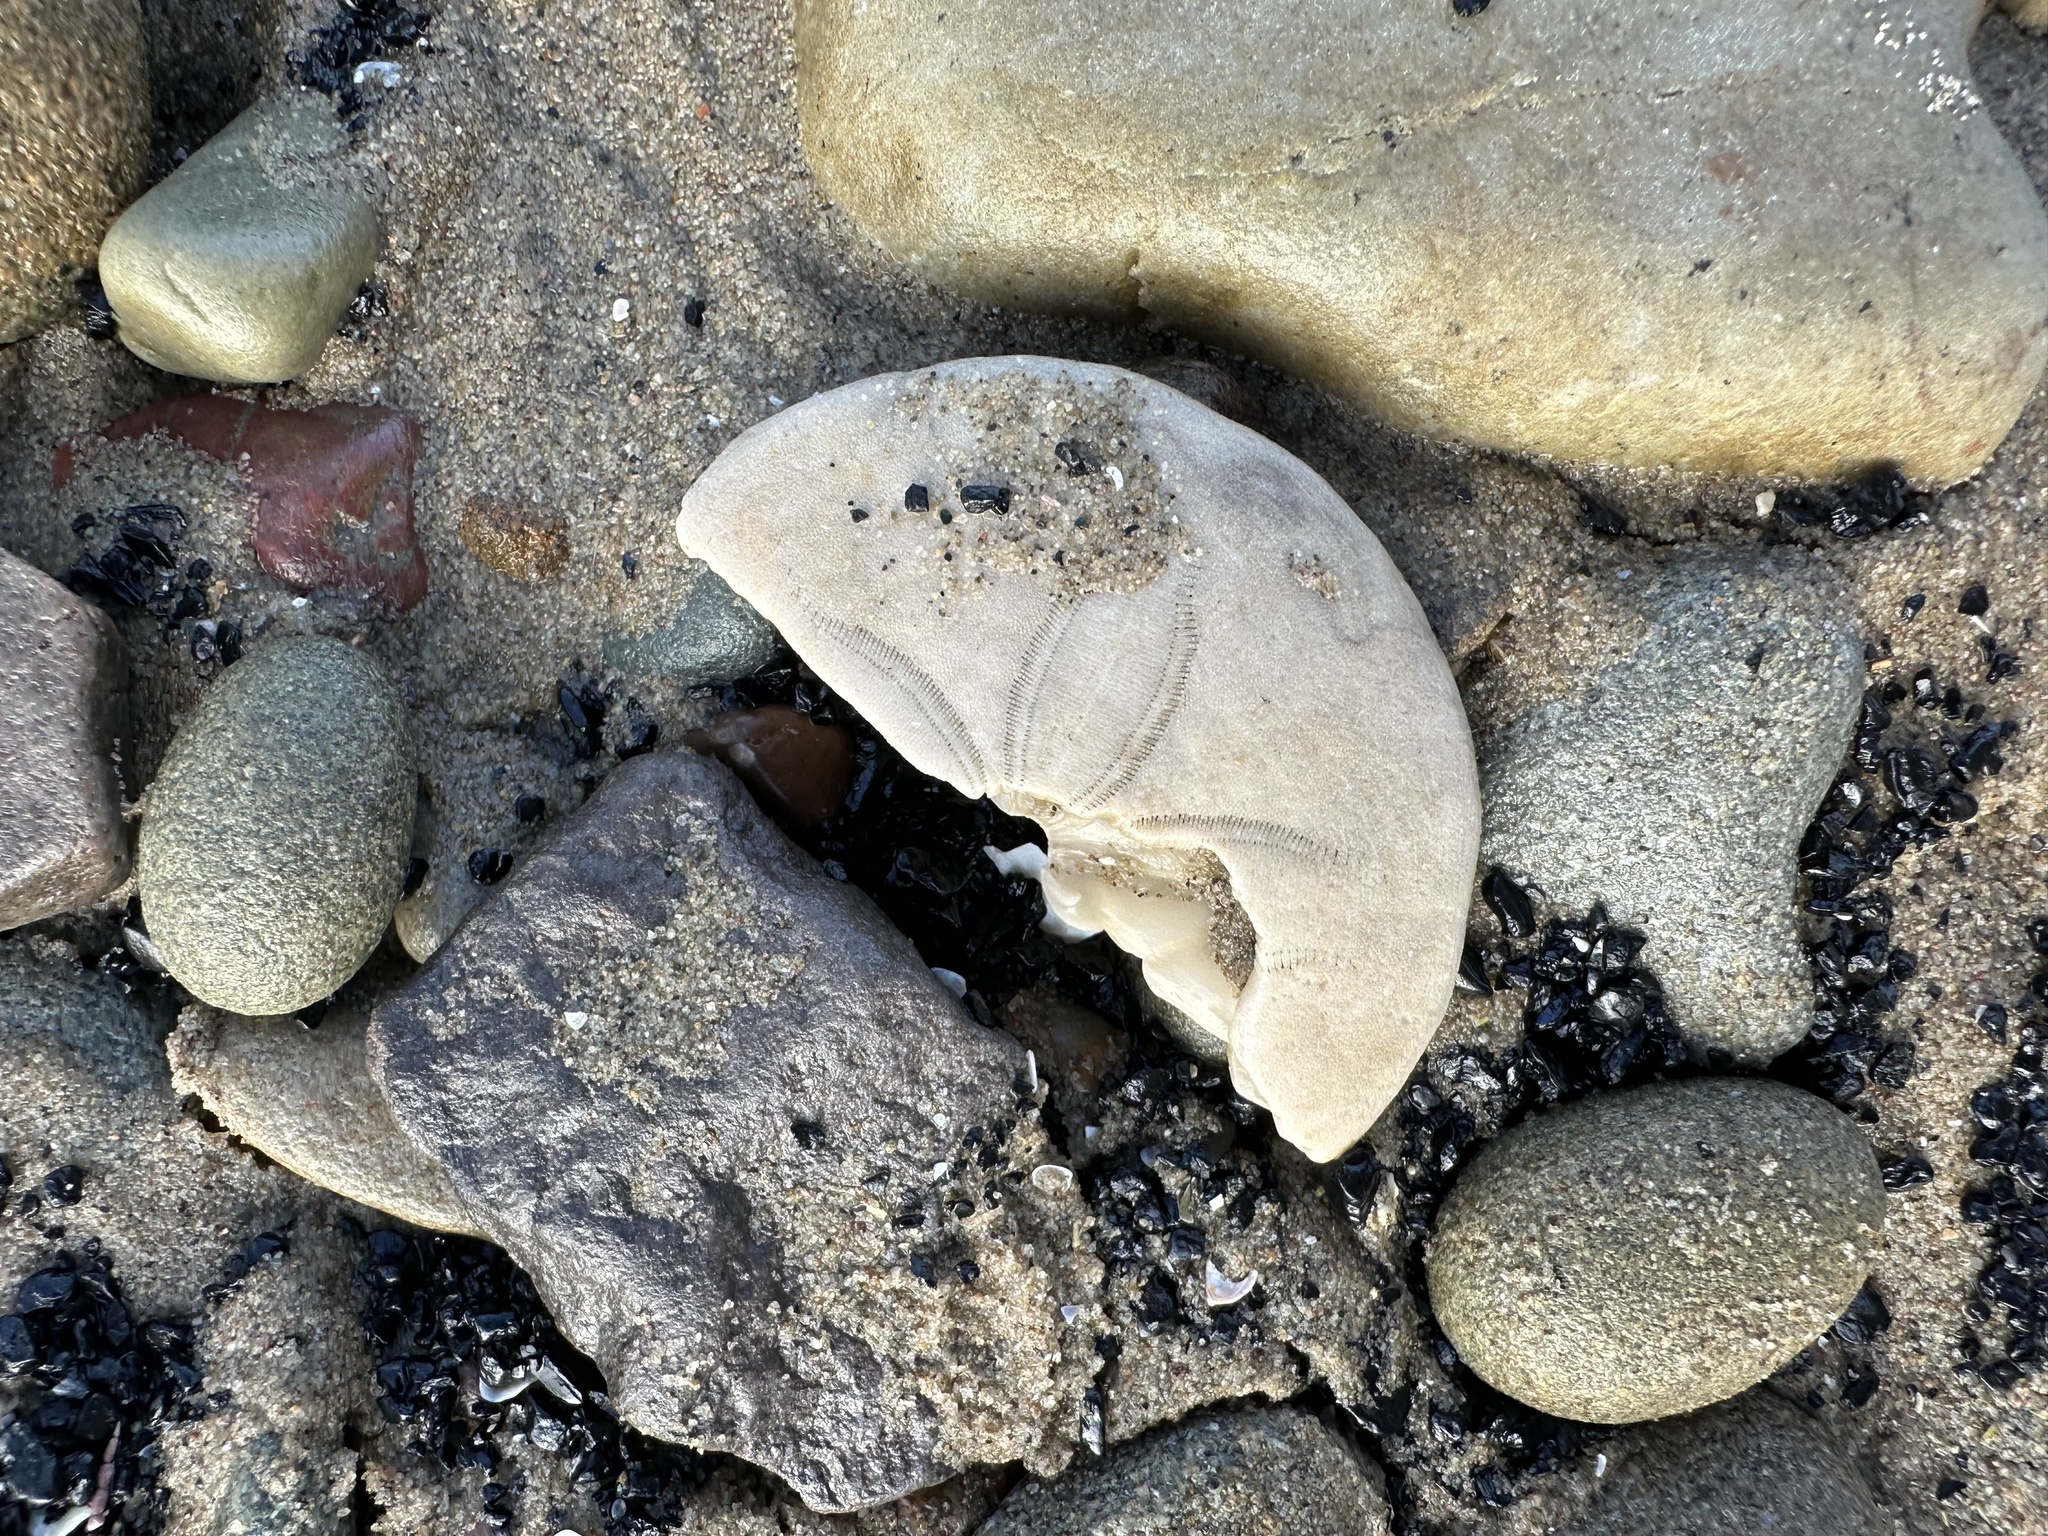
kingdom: Animalia
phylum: Echinodermata
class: Echinoidea
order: Echinolampadacea
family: Echinarachniidae
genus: Echinarachnius
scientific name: Echinarachnius parma
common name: Common sand dollar
